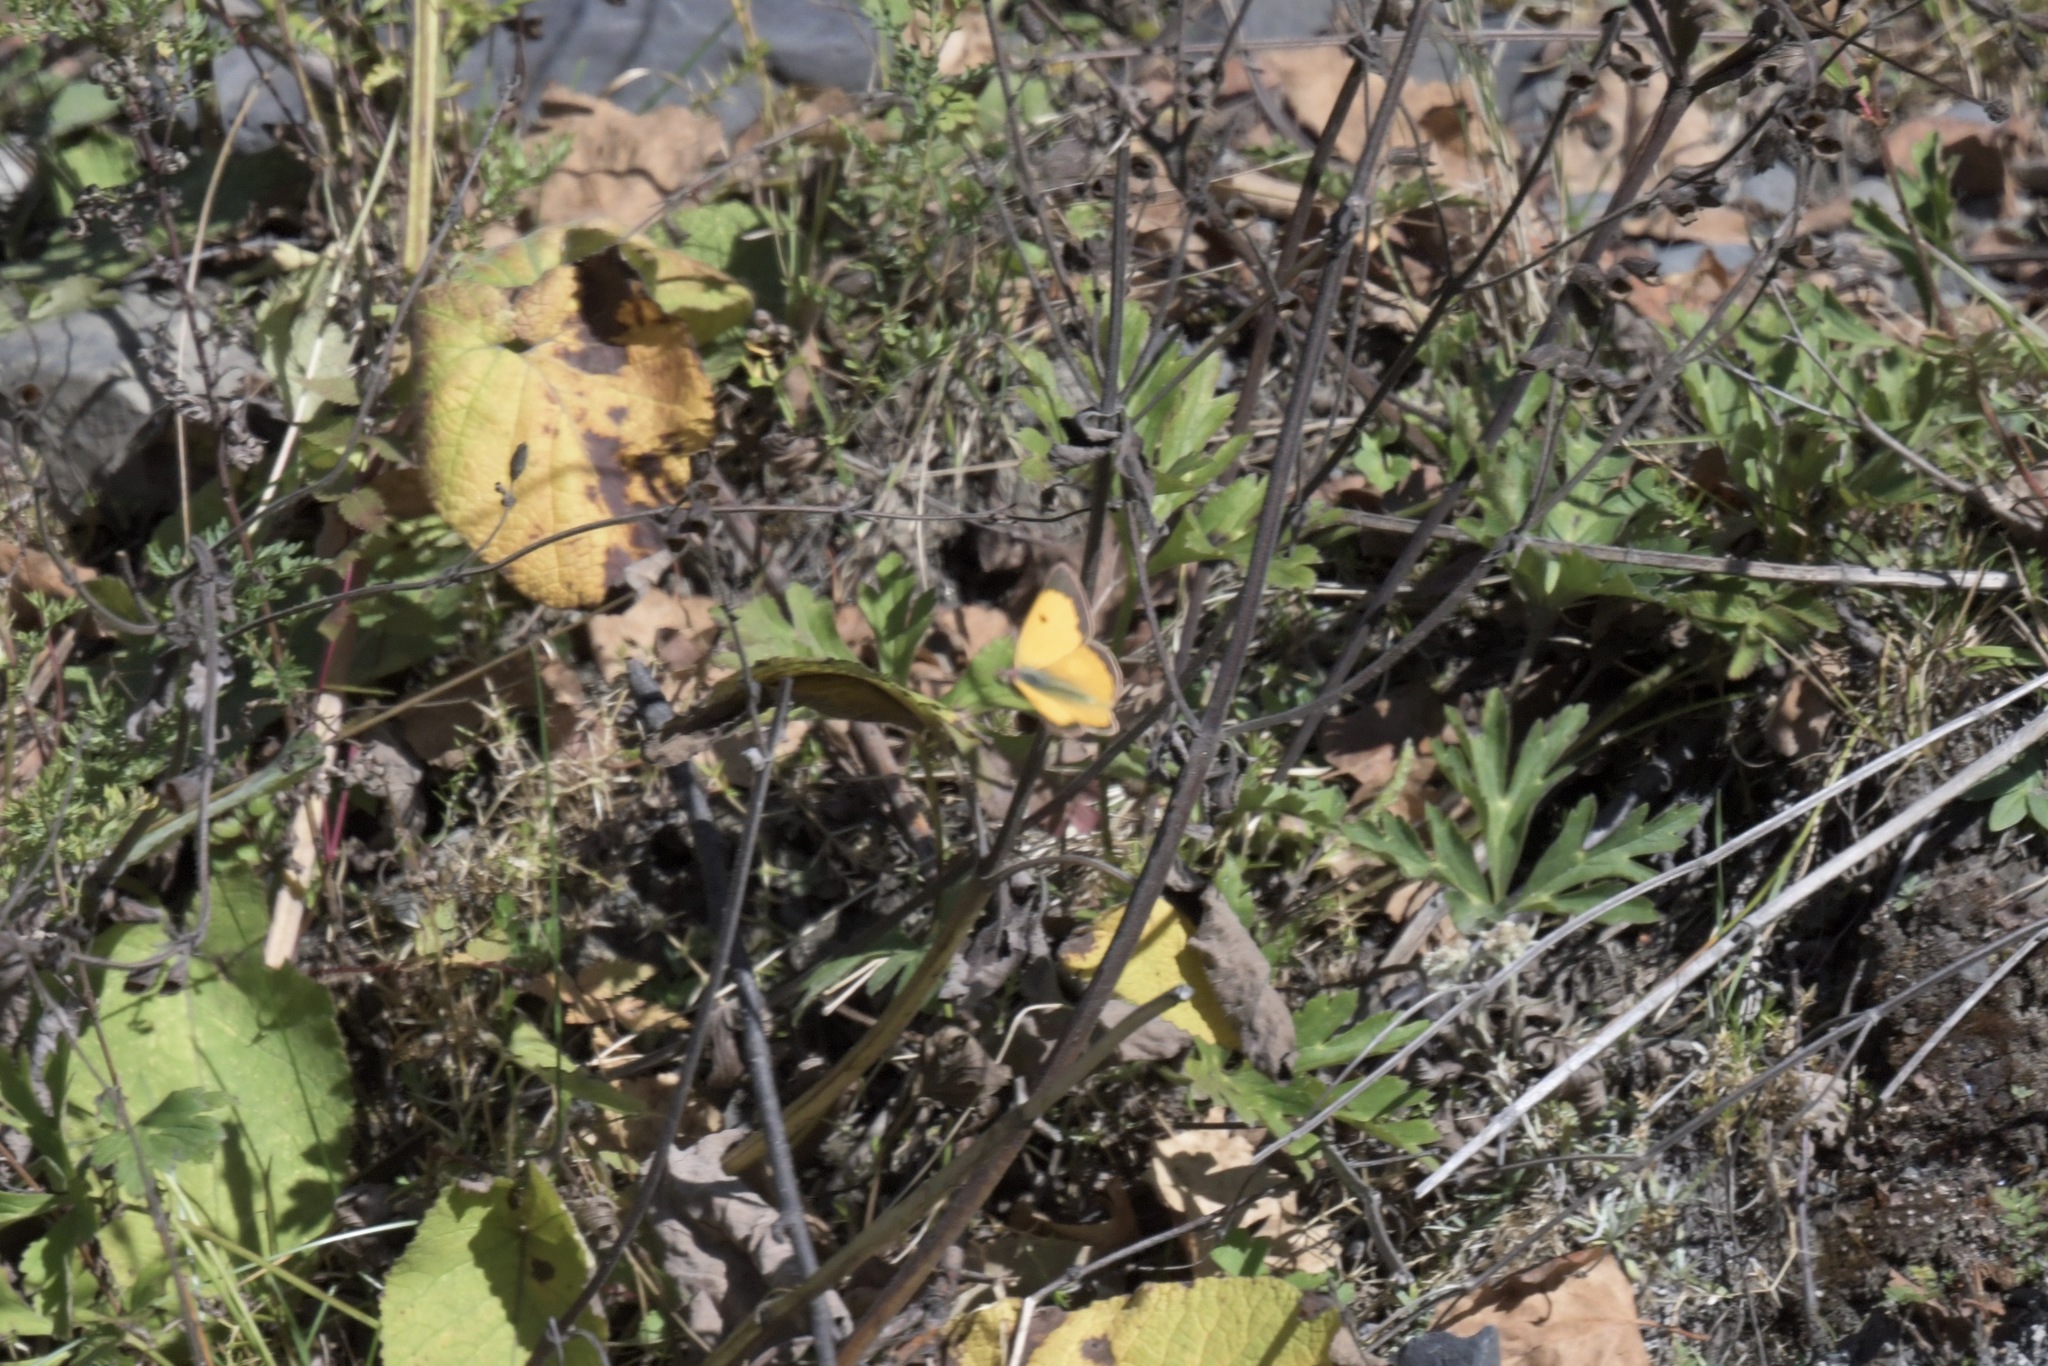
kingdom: Animalia
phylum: Arthropoda
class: Insecta
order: Lepidoptera
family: Pieridae
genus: Colias
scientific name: Colias fieldii
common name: Dark clouded yellow
